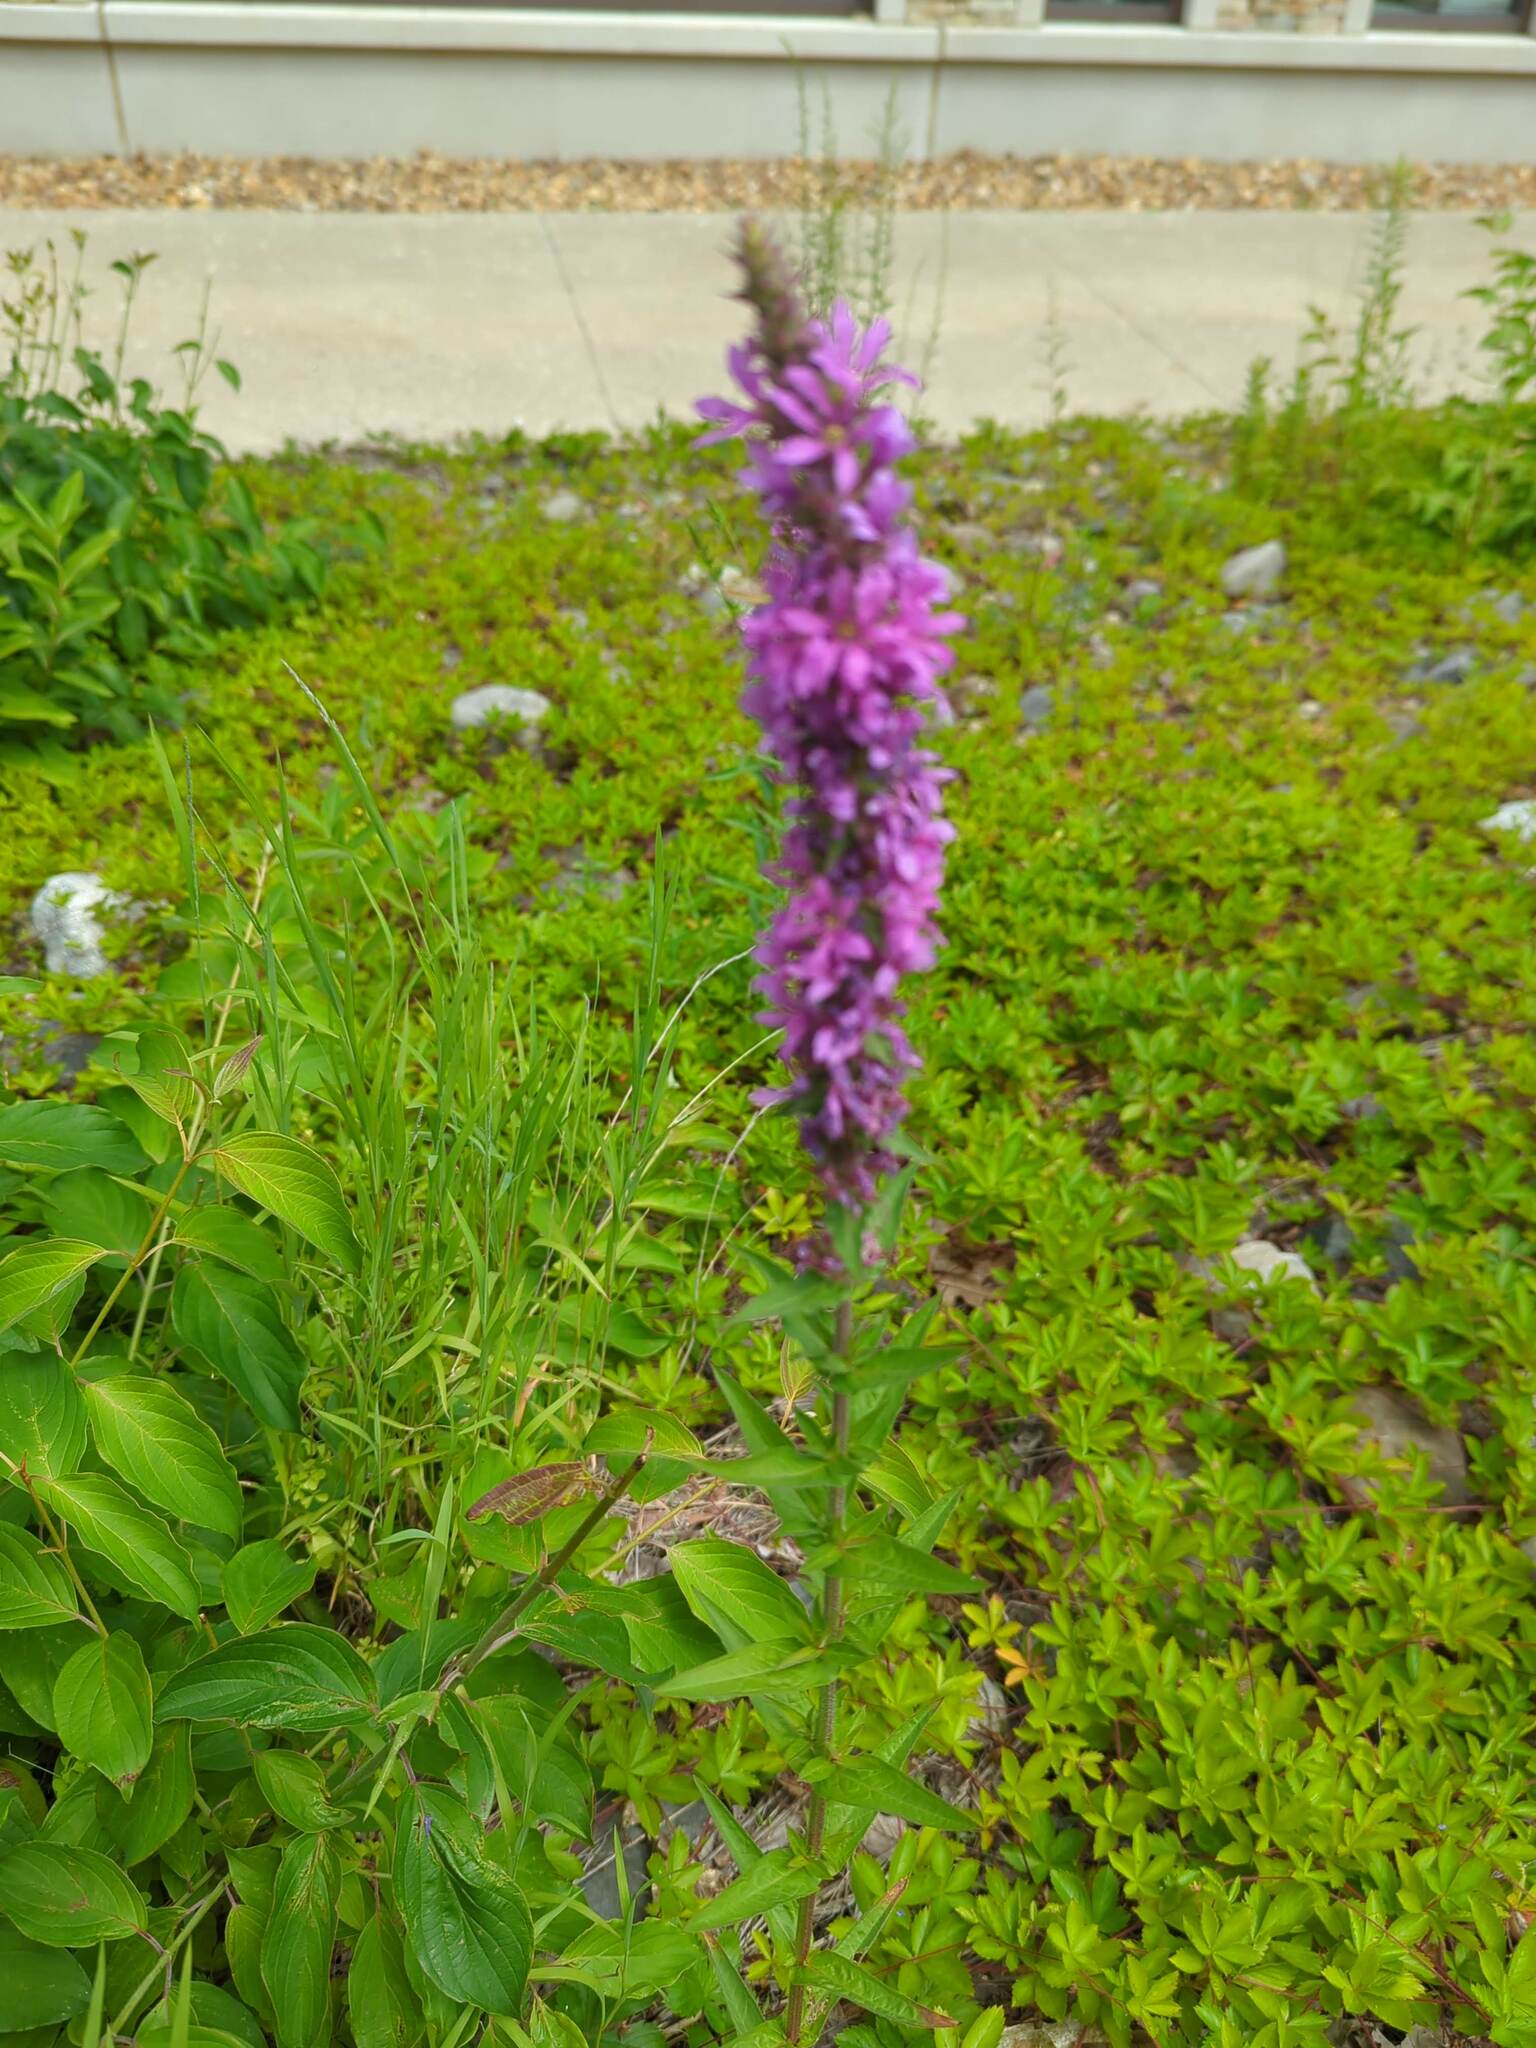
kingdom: Plantae
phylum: Tracheophyta
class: Magnoliopsida
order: Myrtales
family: Lythraceae
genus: Lythrum
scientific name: Lythrum salicaria
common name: Purple loosestrife
